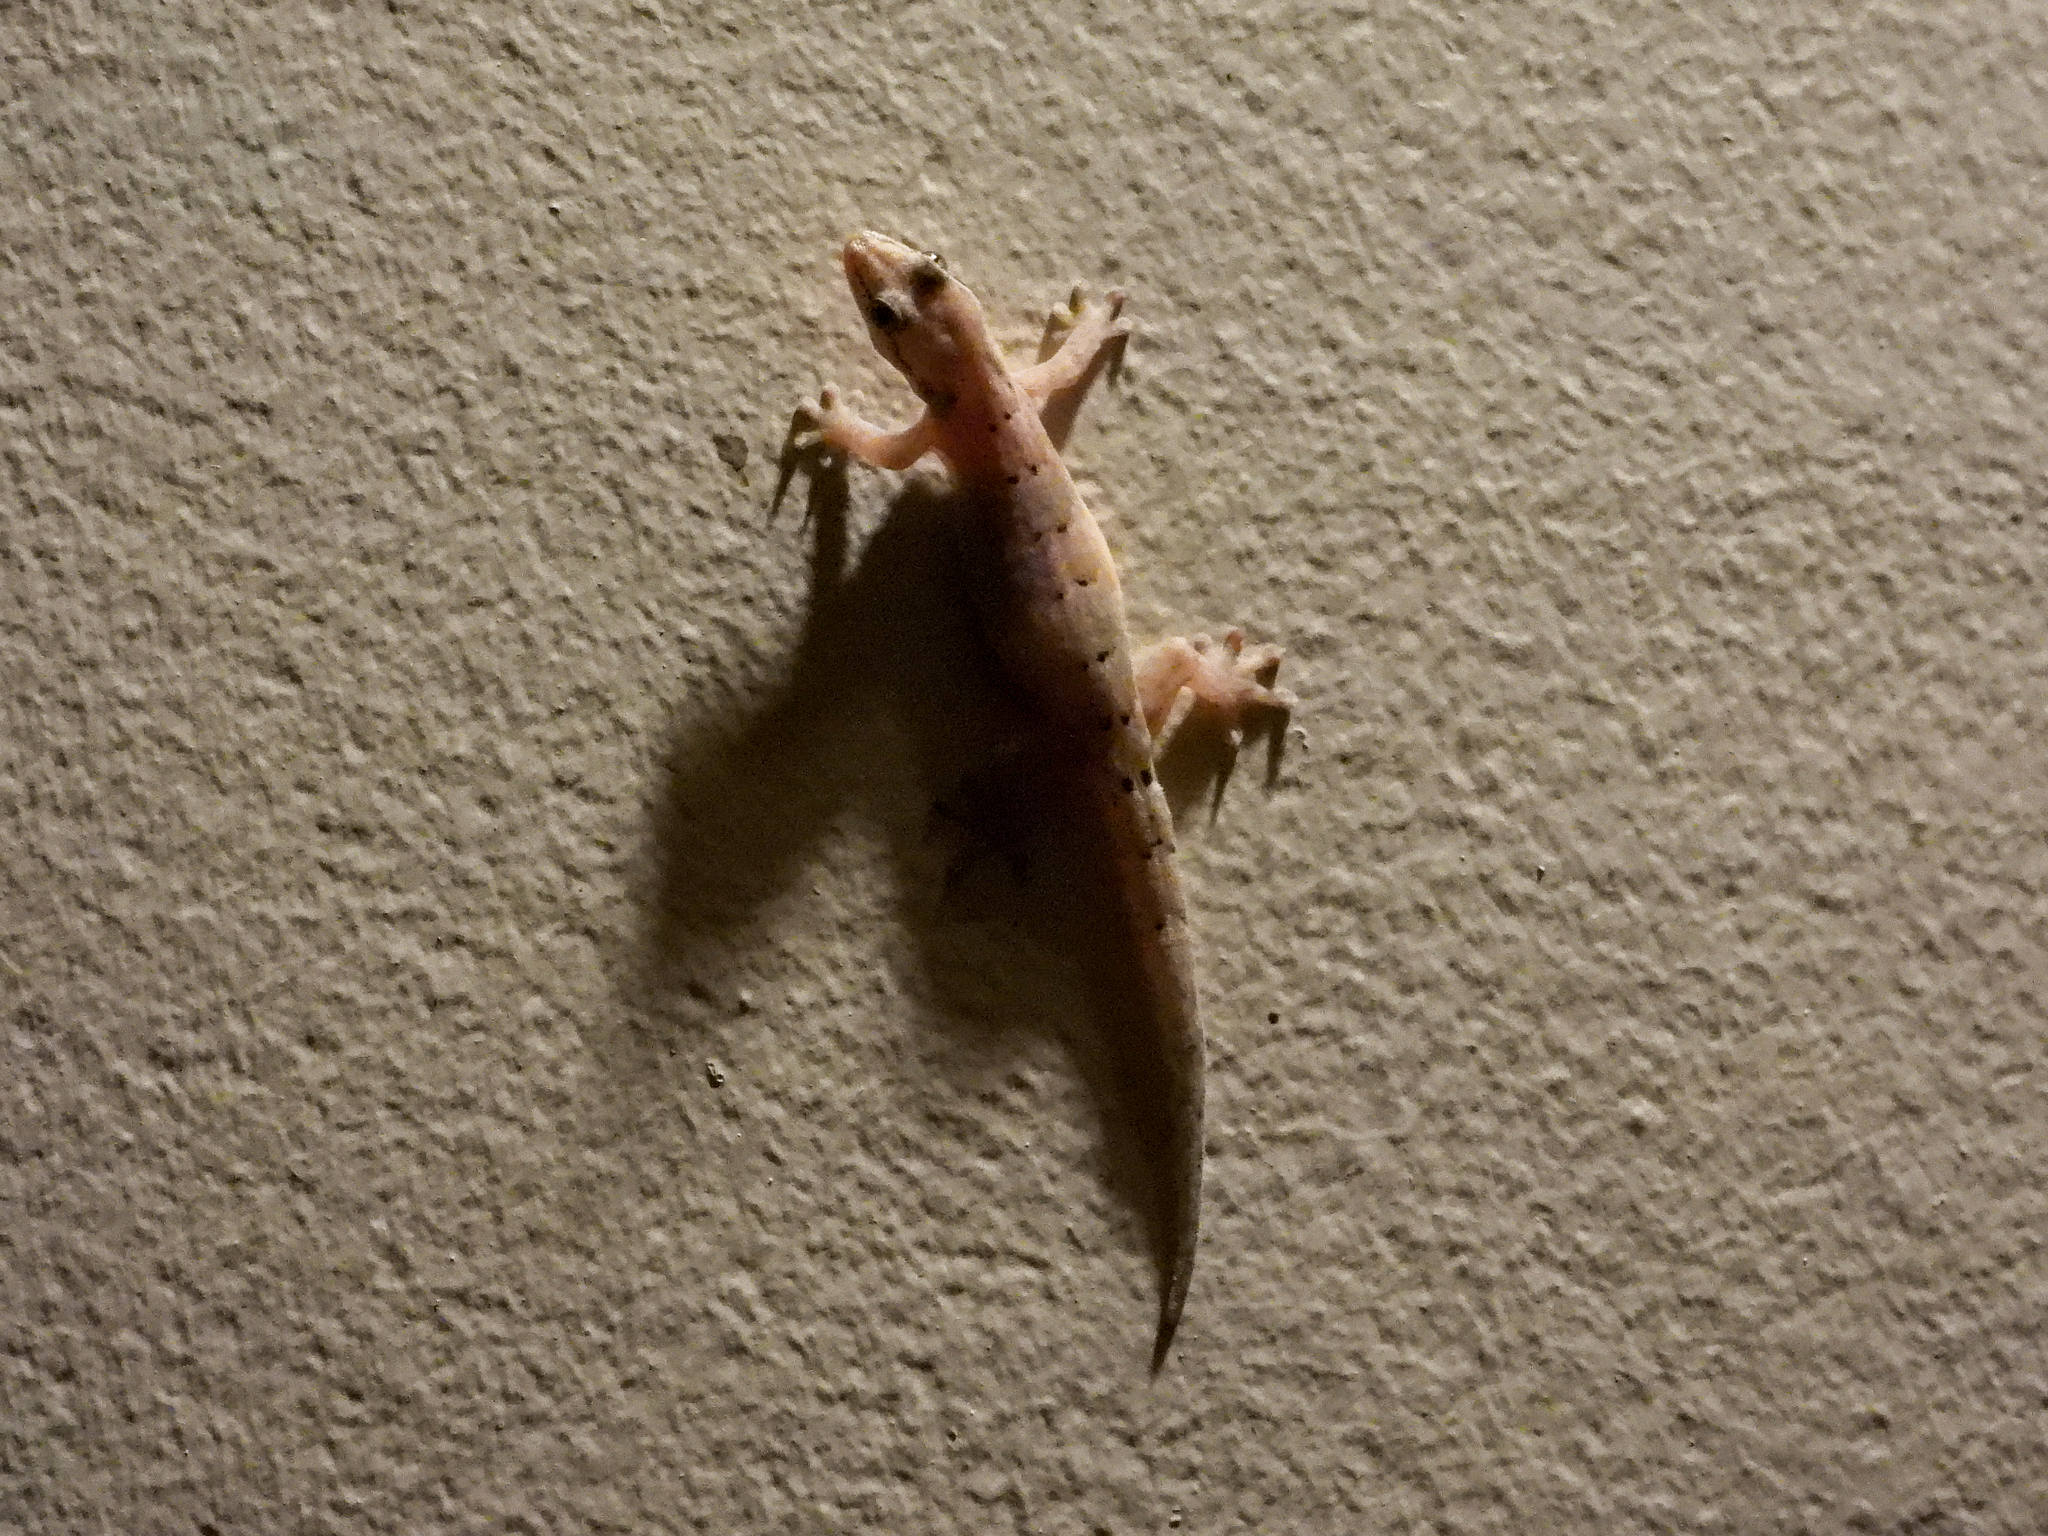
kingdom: Animalia
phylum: Chordata
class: Squamata
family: Gekkonidae
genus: Lepidodactylus
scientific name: Lepidodactylus lugubris
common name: Mourning gecko
